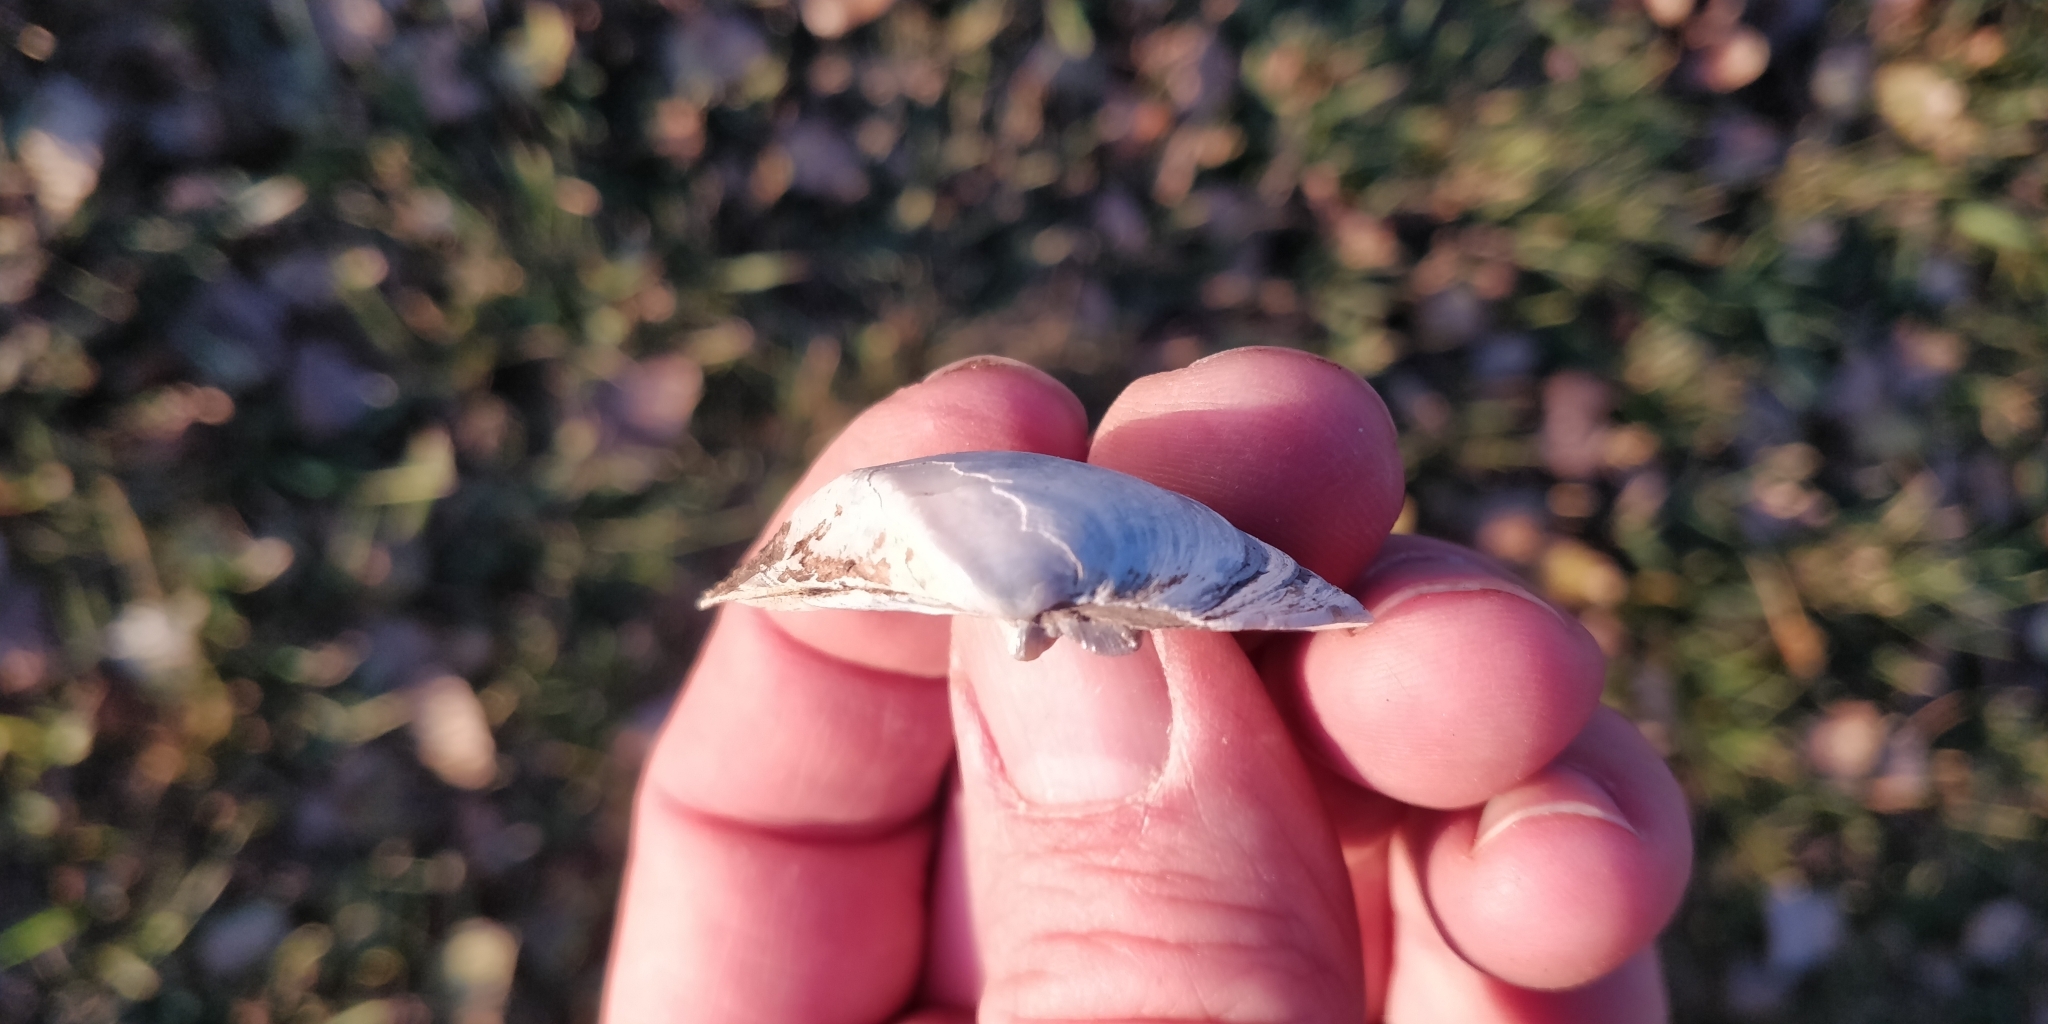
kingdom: Animalia
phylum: Mollusca
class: Bivalvia
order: Unionida
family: Unionidae
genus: Truncilla
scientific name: Truncilla truncata
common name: Deertoe
